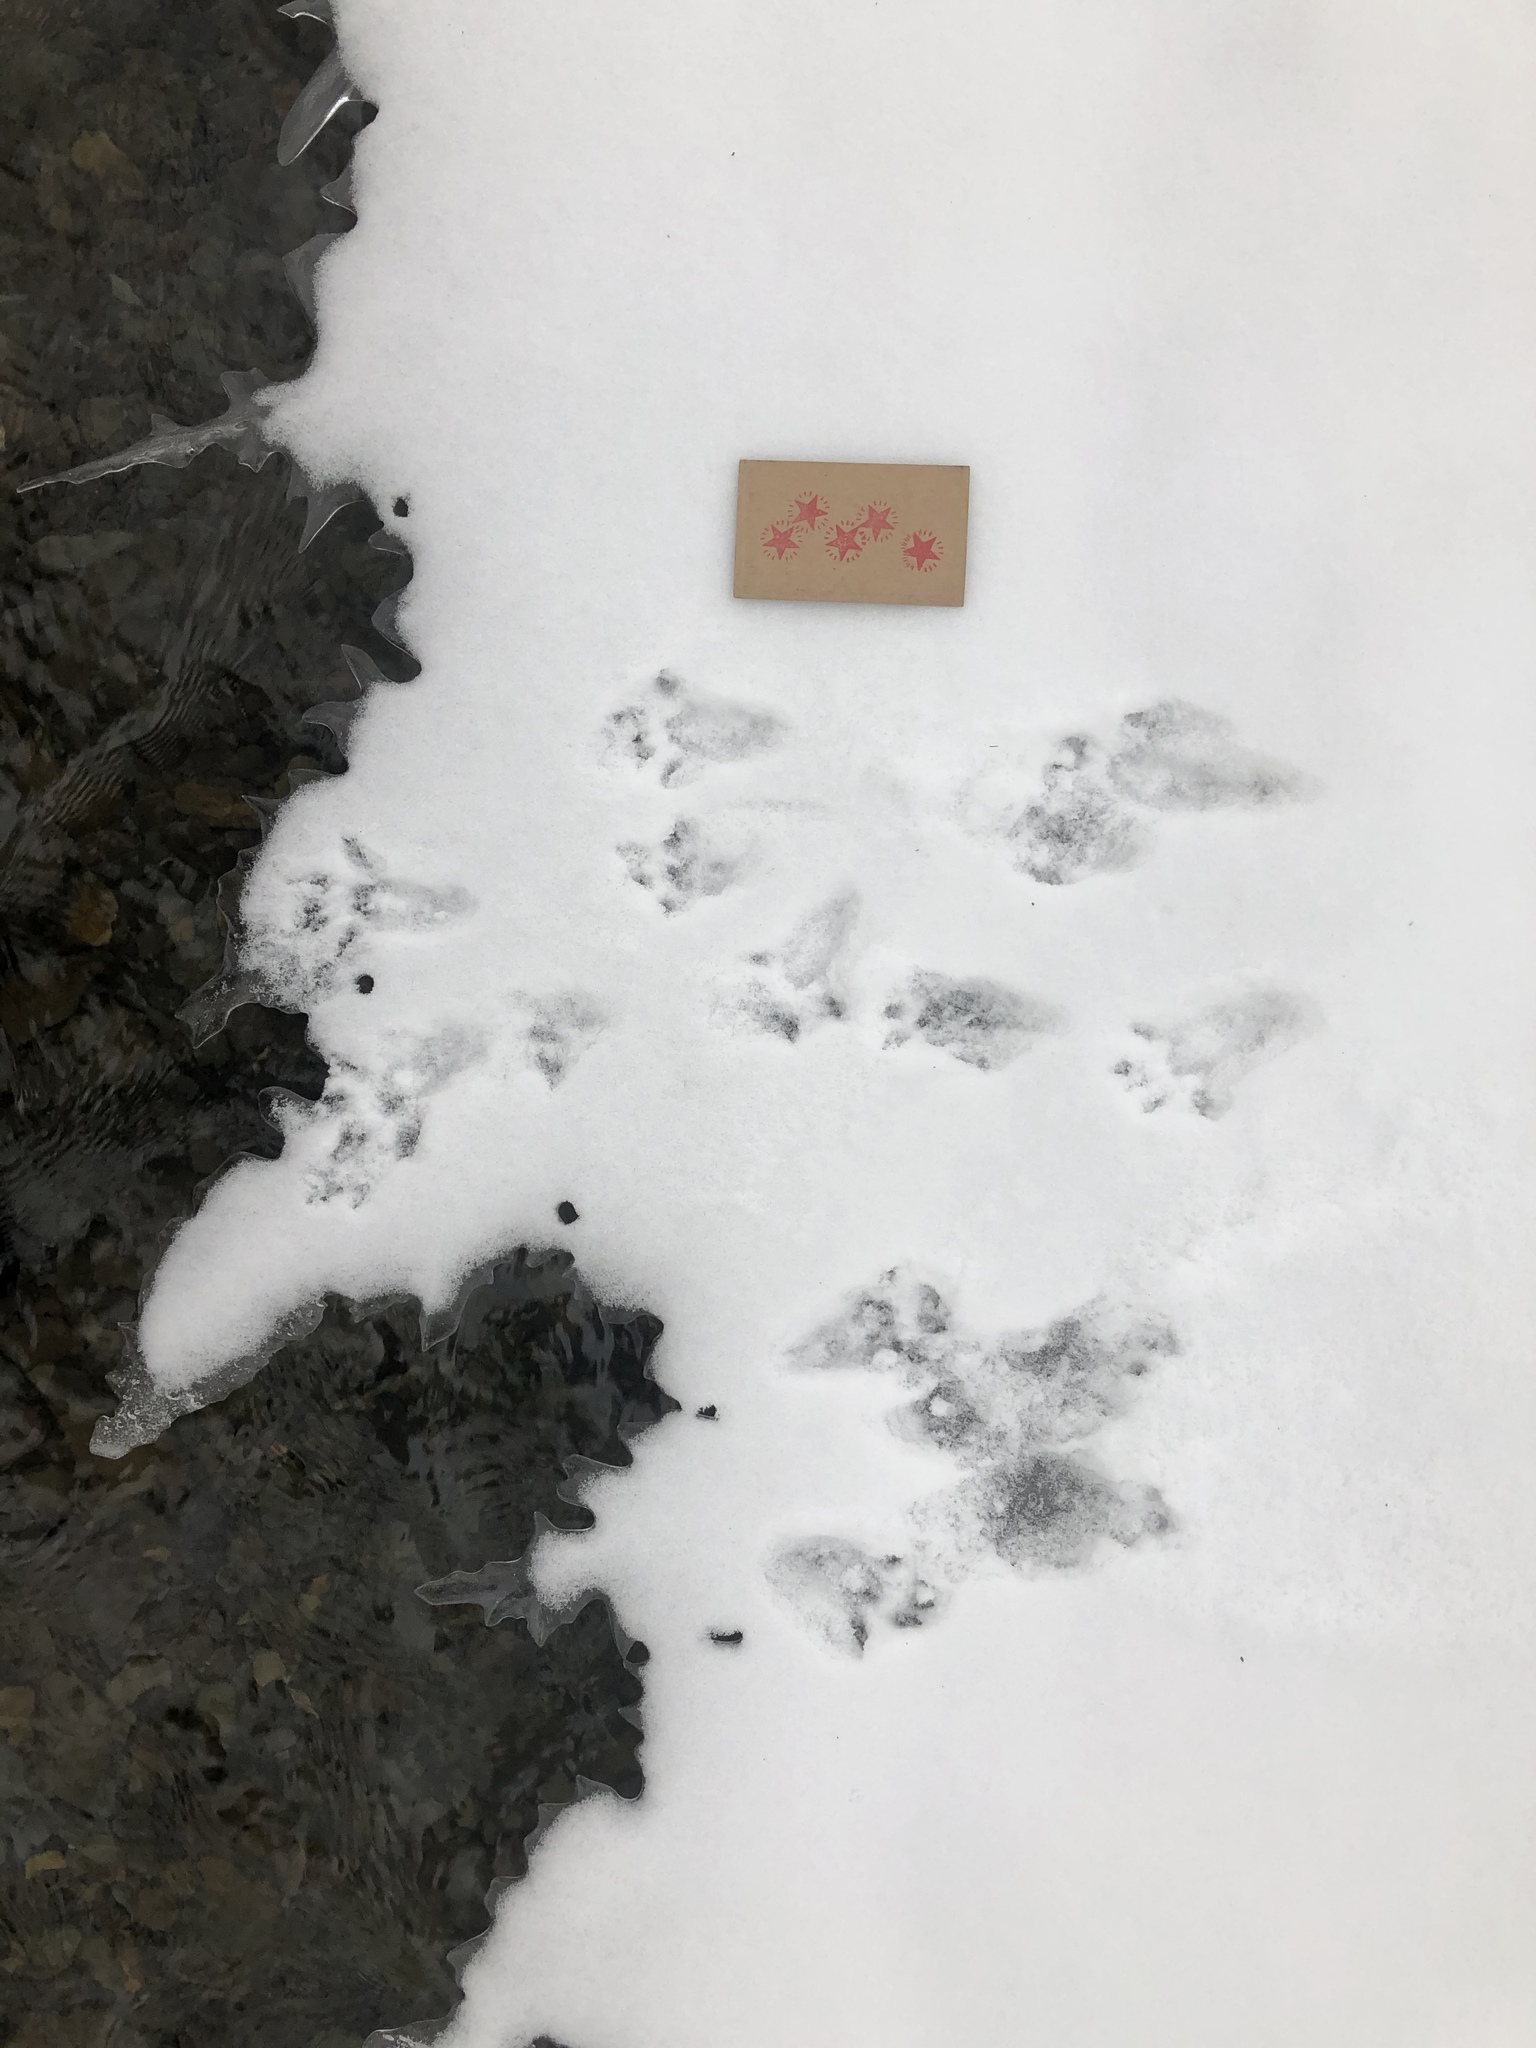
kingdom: Animalia
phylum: Chordata
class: Mammalia
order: Rodentia
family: Sciuridae
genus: Sciurus
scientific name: Sciurus carolinensis
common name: Eastern gray squirrel
